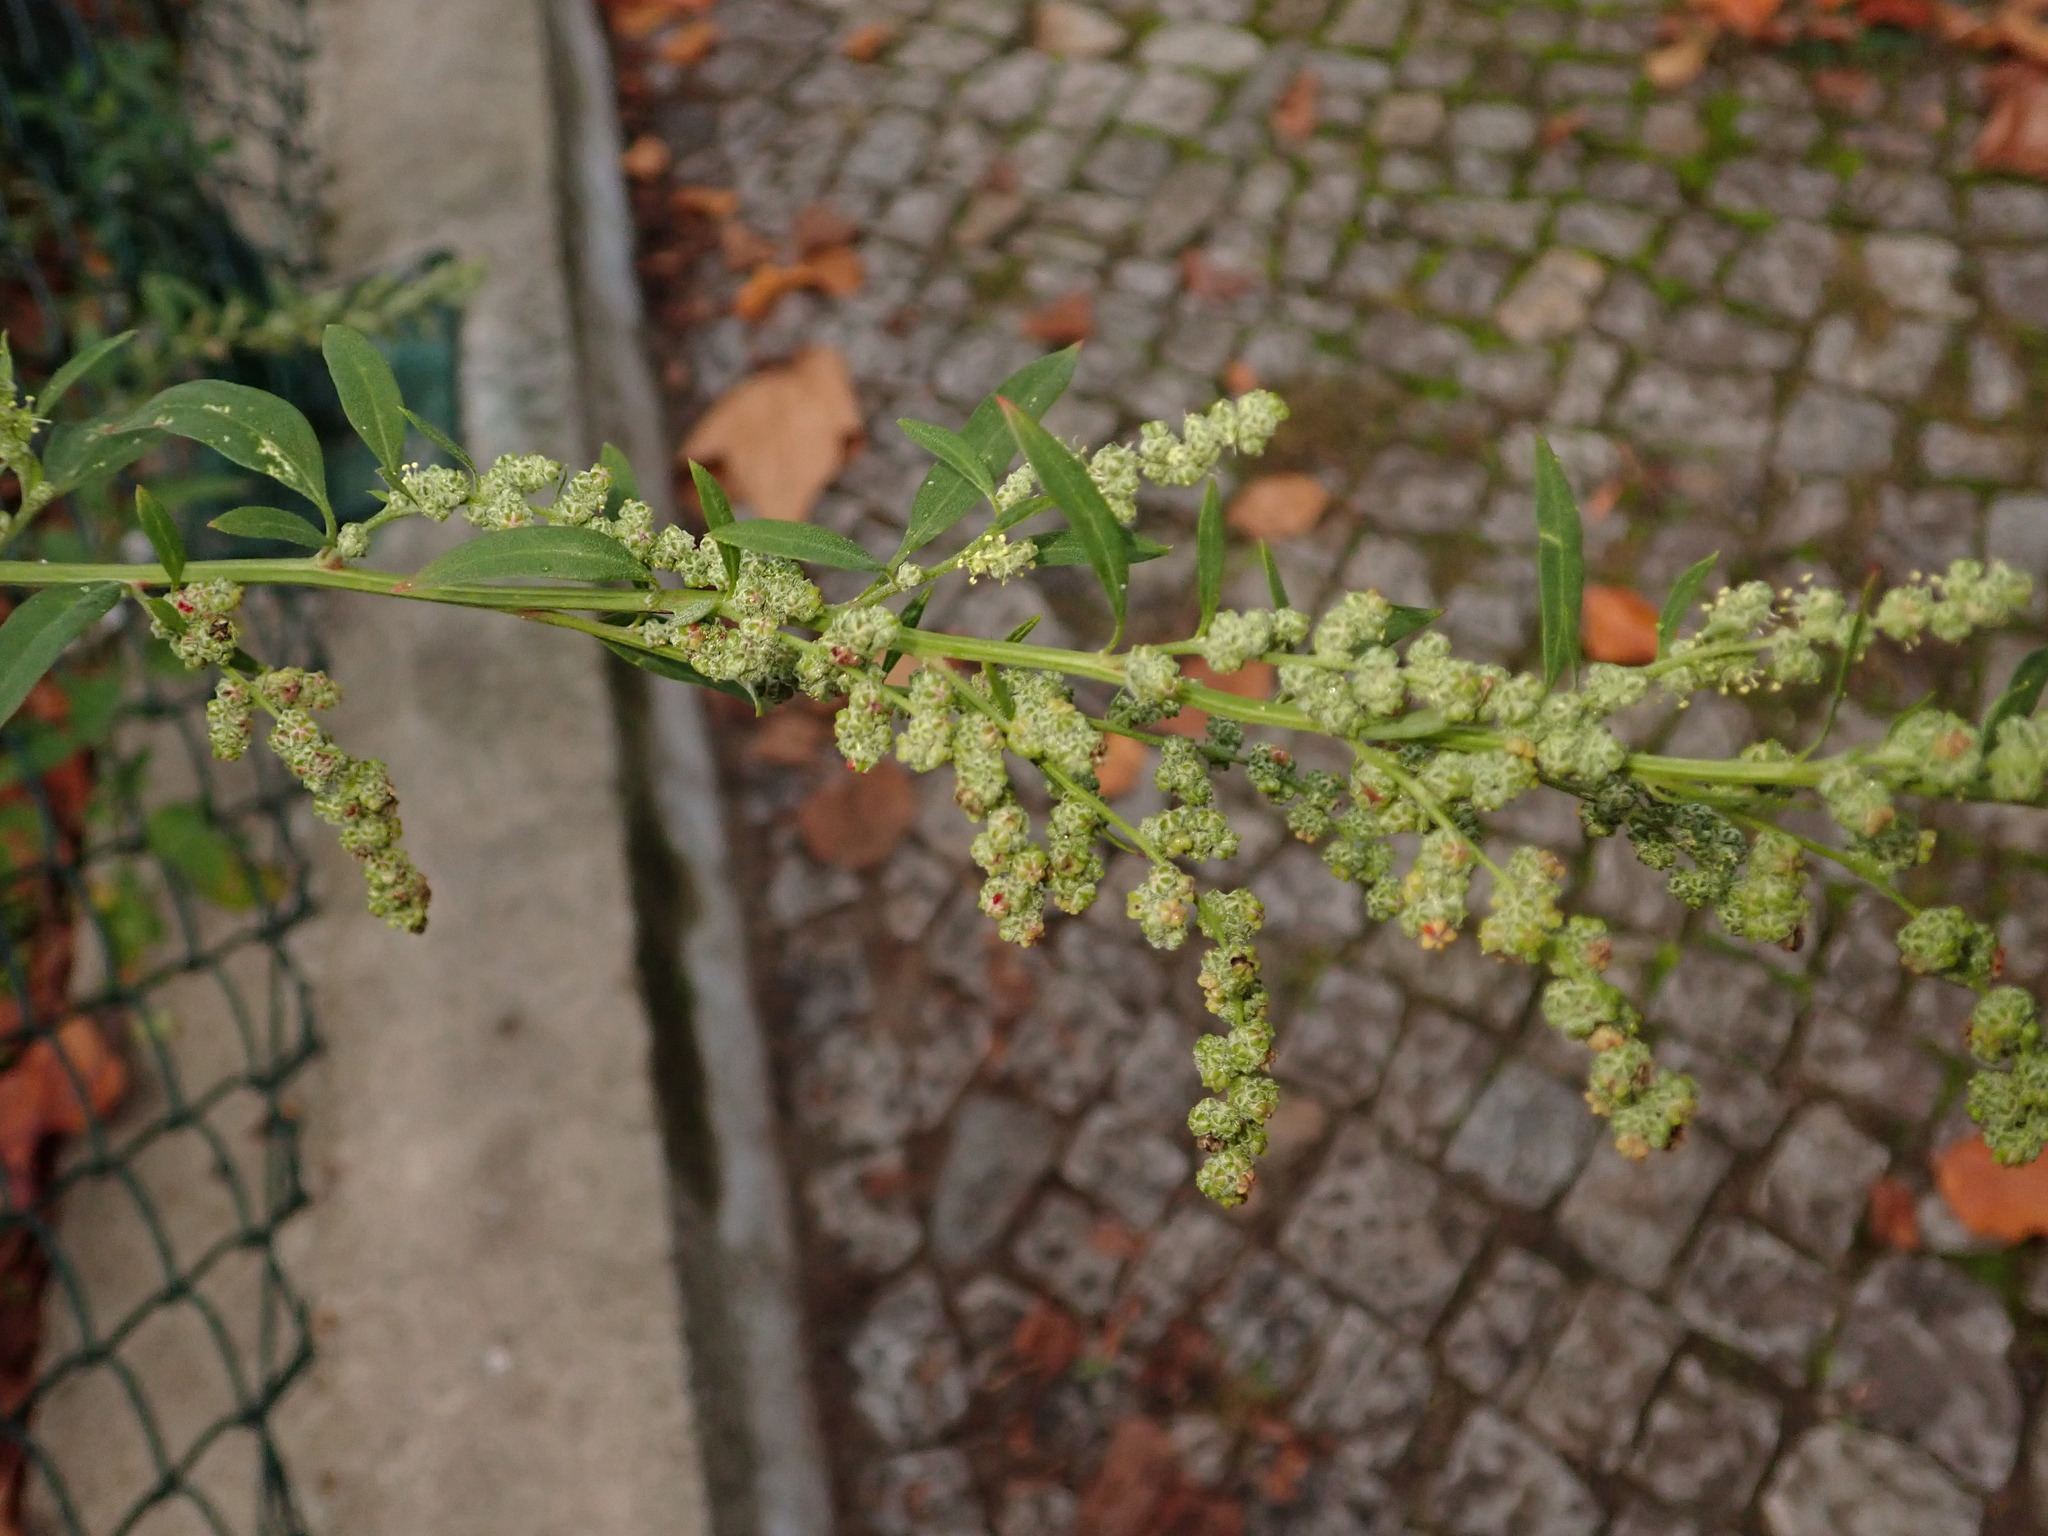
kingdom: Plantae
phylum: Tracheophyta
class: Magnoliopsida
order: Caryophyllales
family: Amaranthaceae
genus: Chenopodium
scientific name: Chenopodium album
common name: Fat-hen
